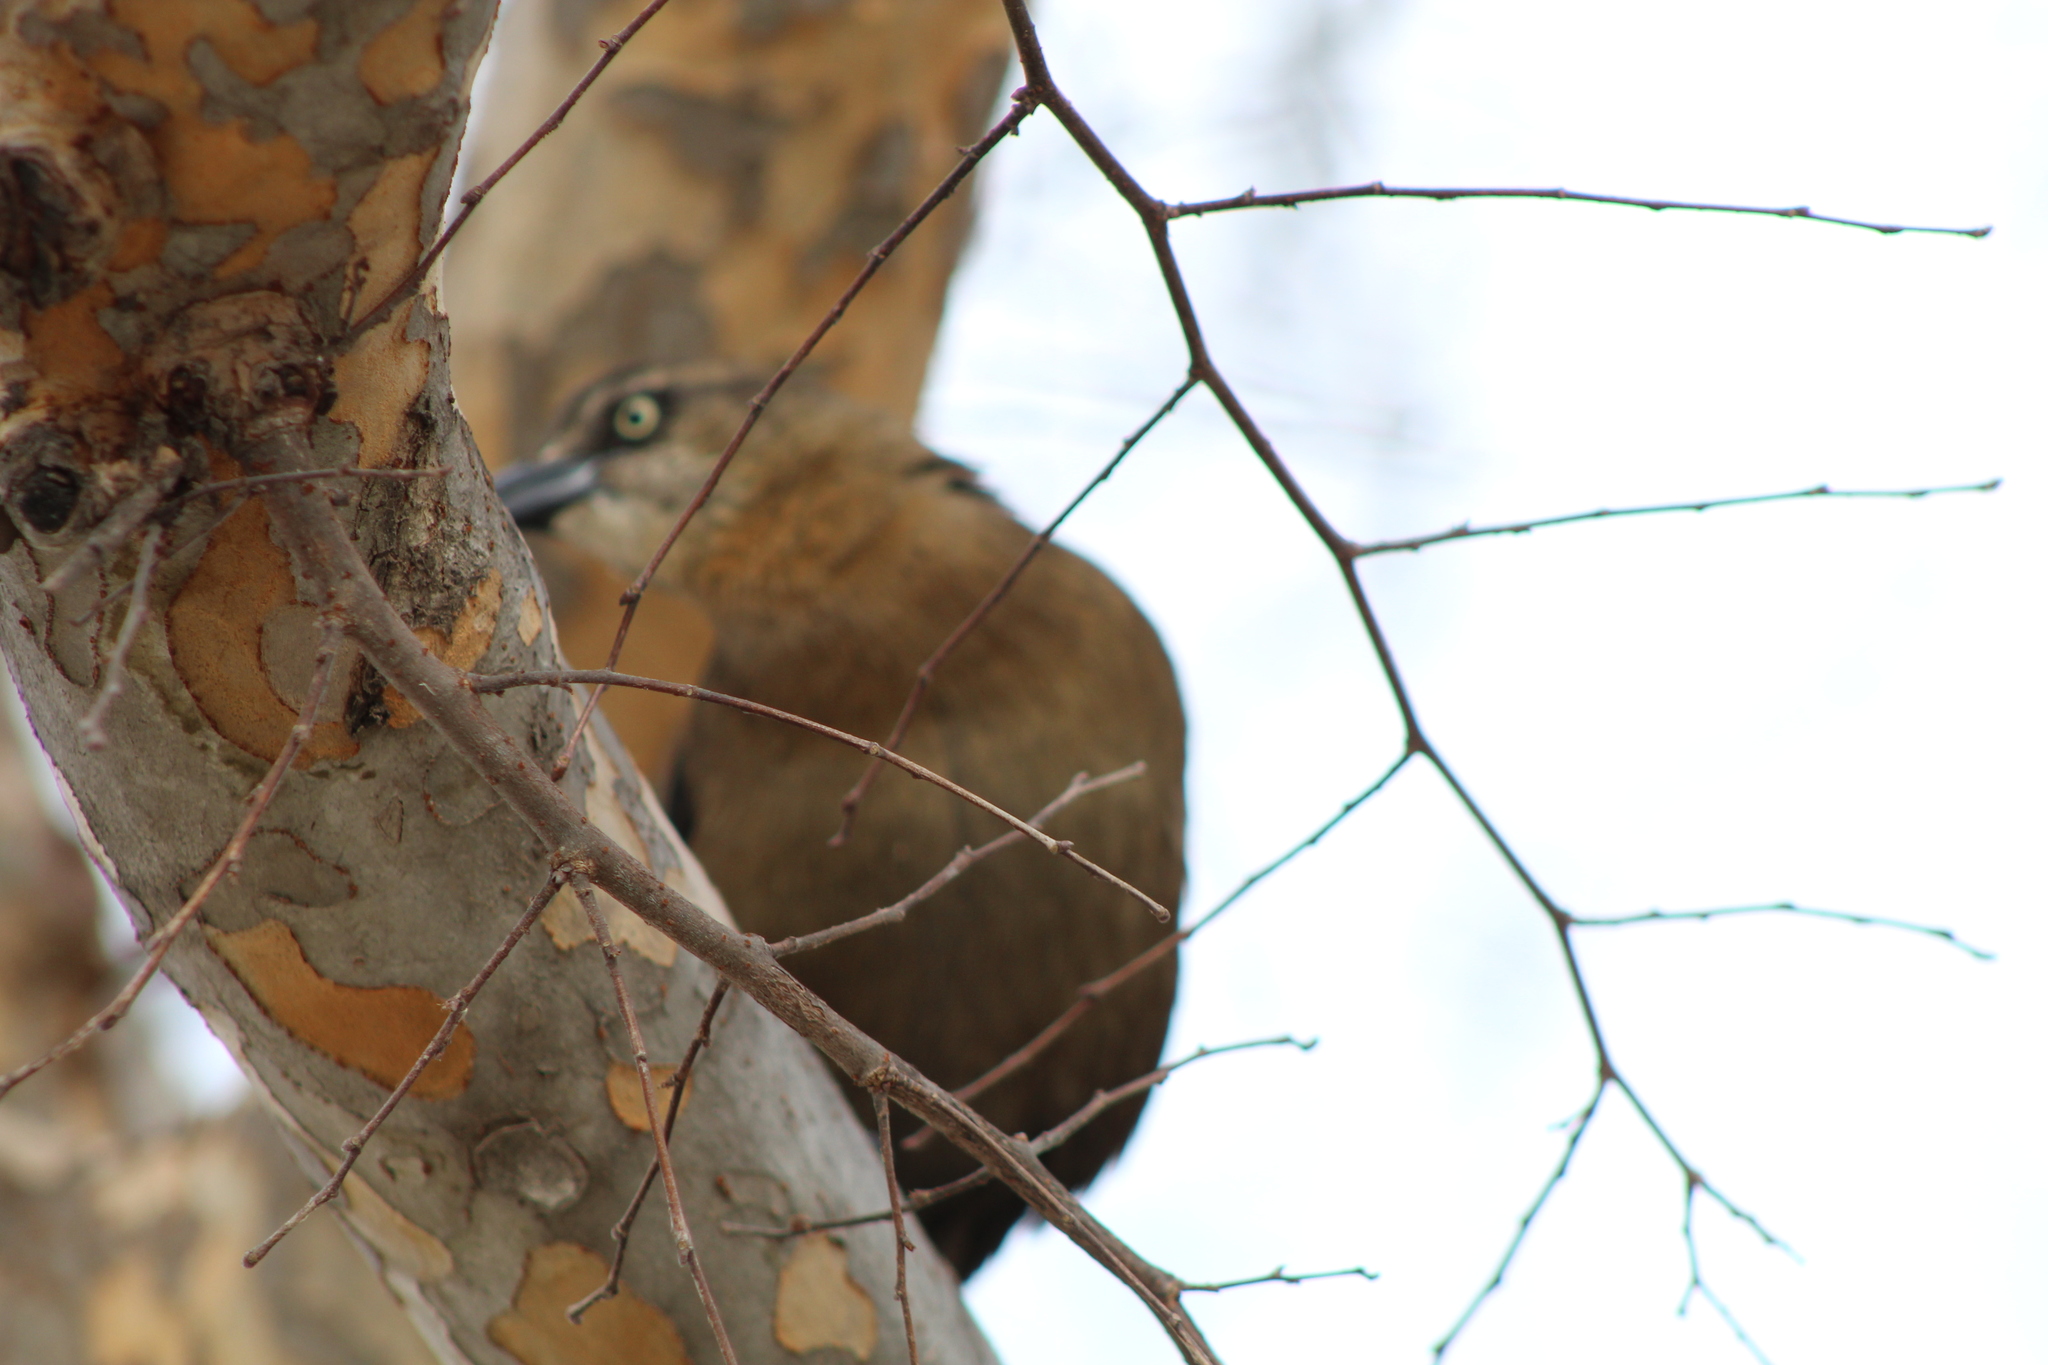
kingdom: Animalia
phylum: Chordata
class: Aves
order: Passeriformes
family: Icteridae
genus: Quiscalus
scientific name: Quiscalus mexicanus
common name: Great-tailed grackle
